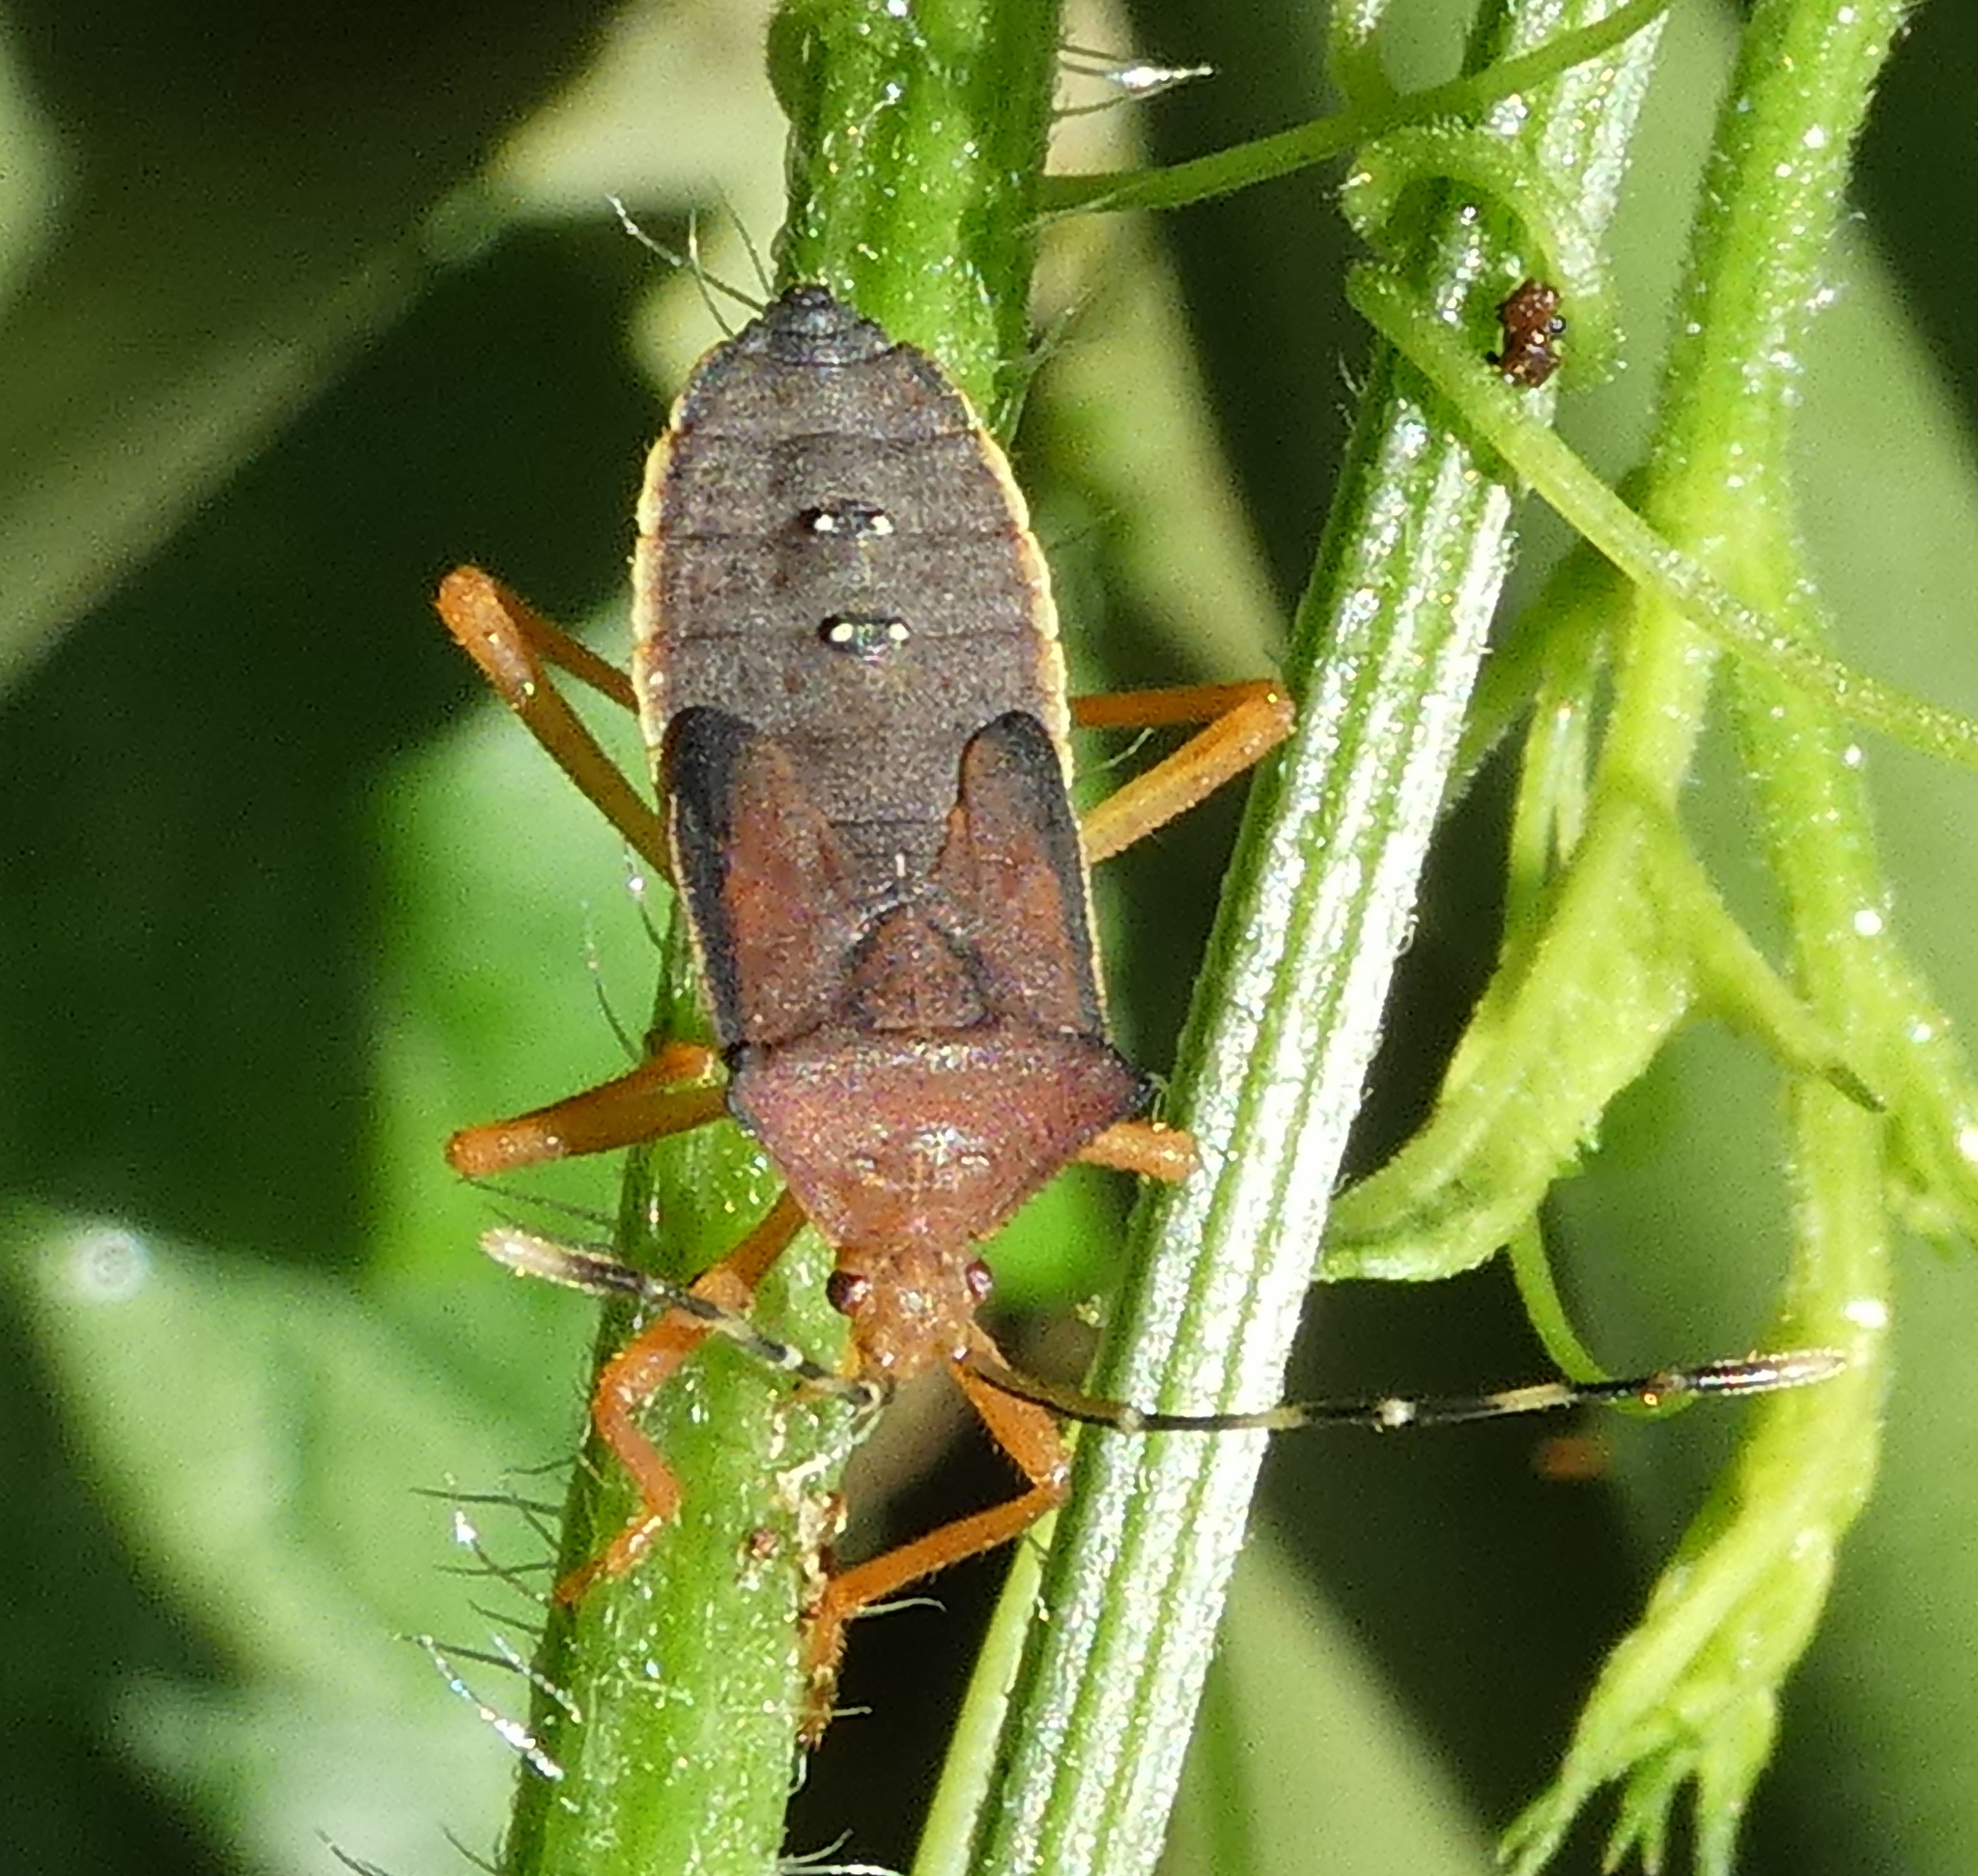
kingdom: Animalia
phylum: Arthropoda
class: Insecta
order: Hemiptera
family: Coreidae
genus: Anasa
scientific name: Anasa varicornis
